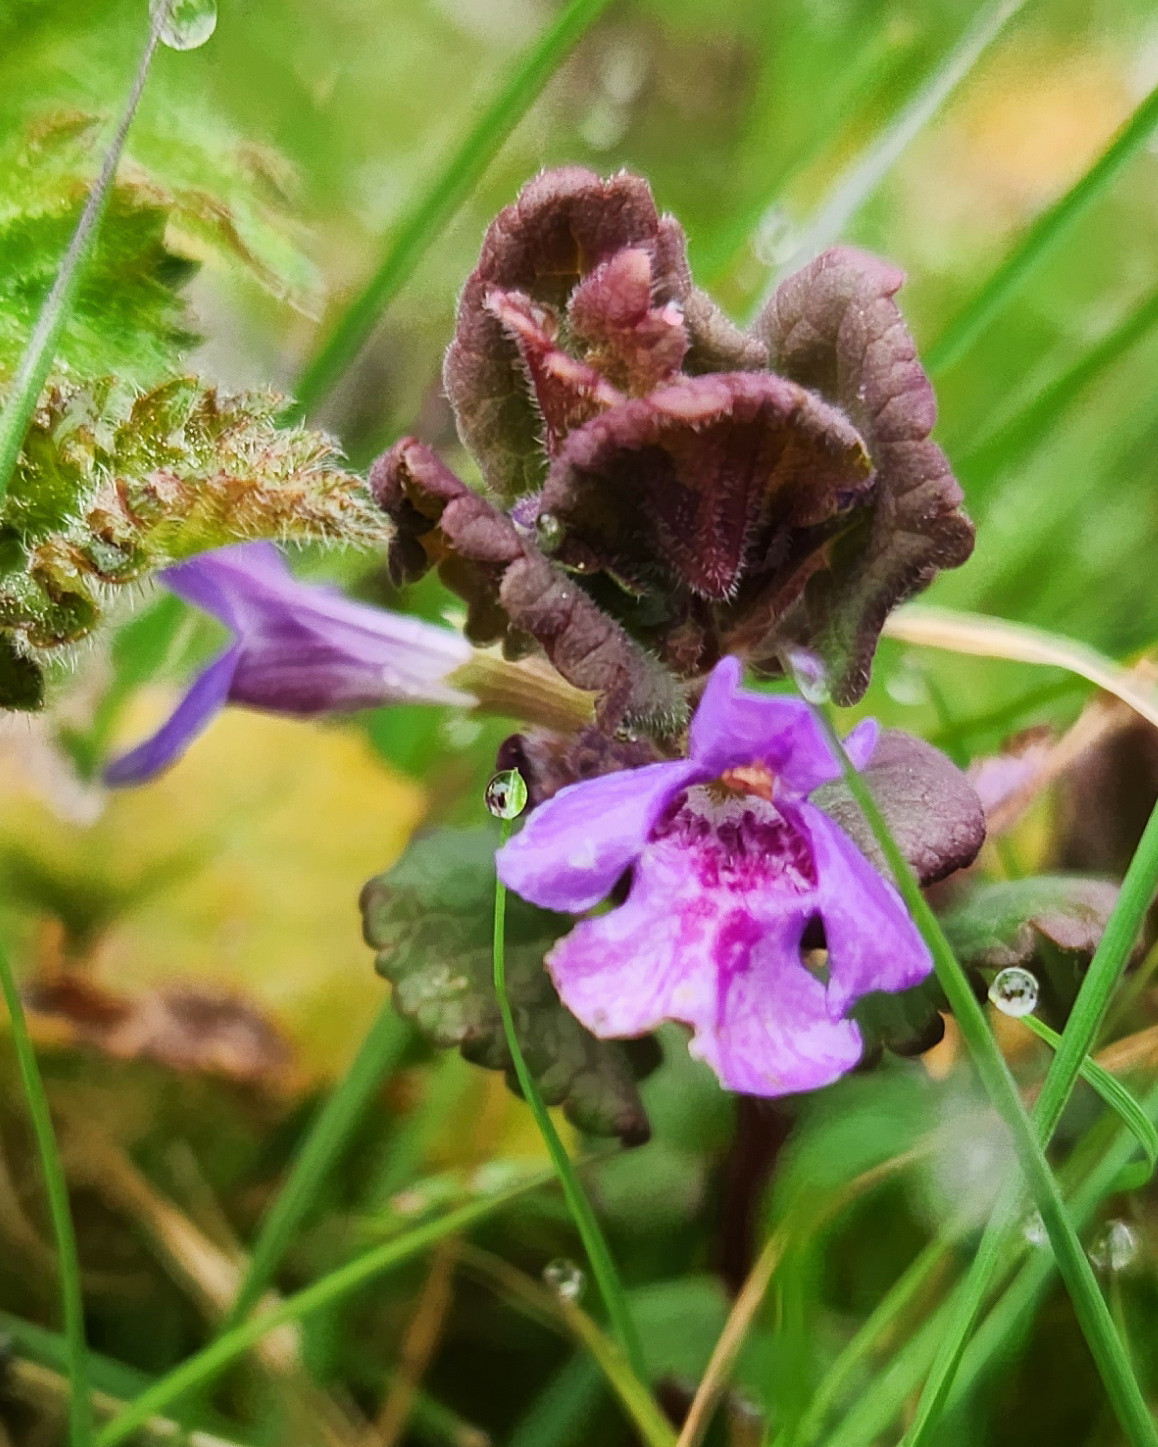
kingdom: Plantae
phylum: Tracheophyta
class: Magnoliopsida
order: Lamiales
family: Lamiaceae
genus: Glechoma
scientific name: Glechoma hederacea
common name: Ground ivy
